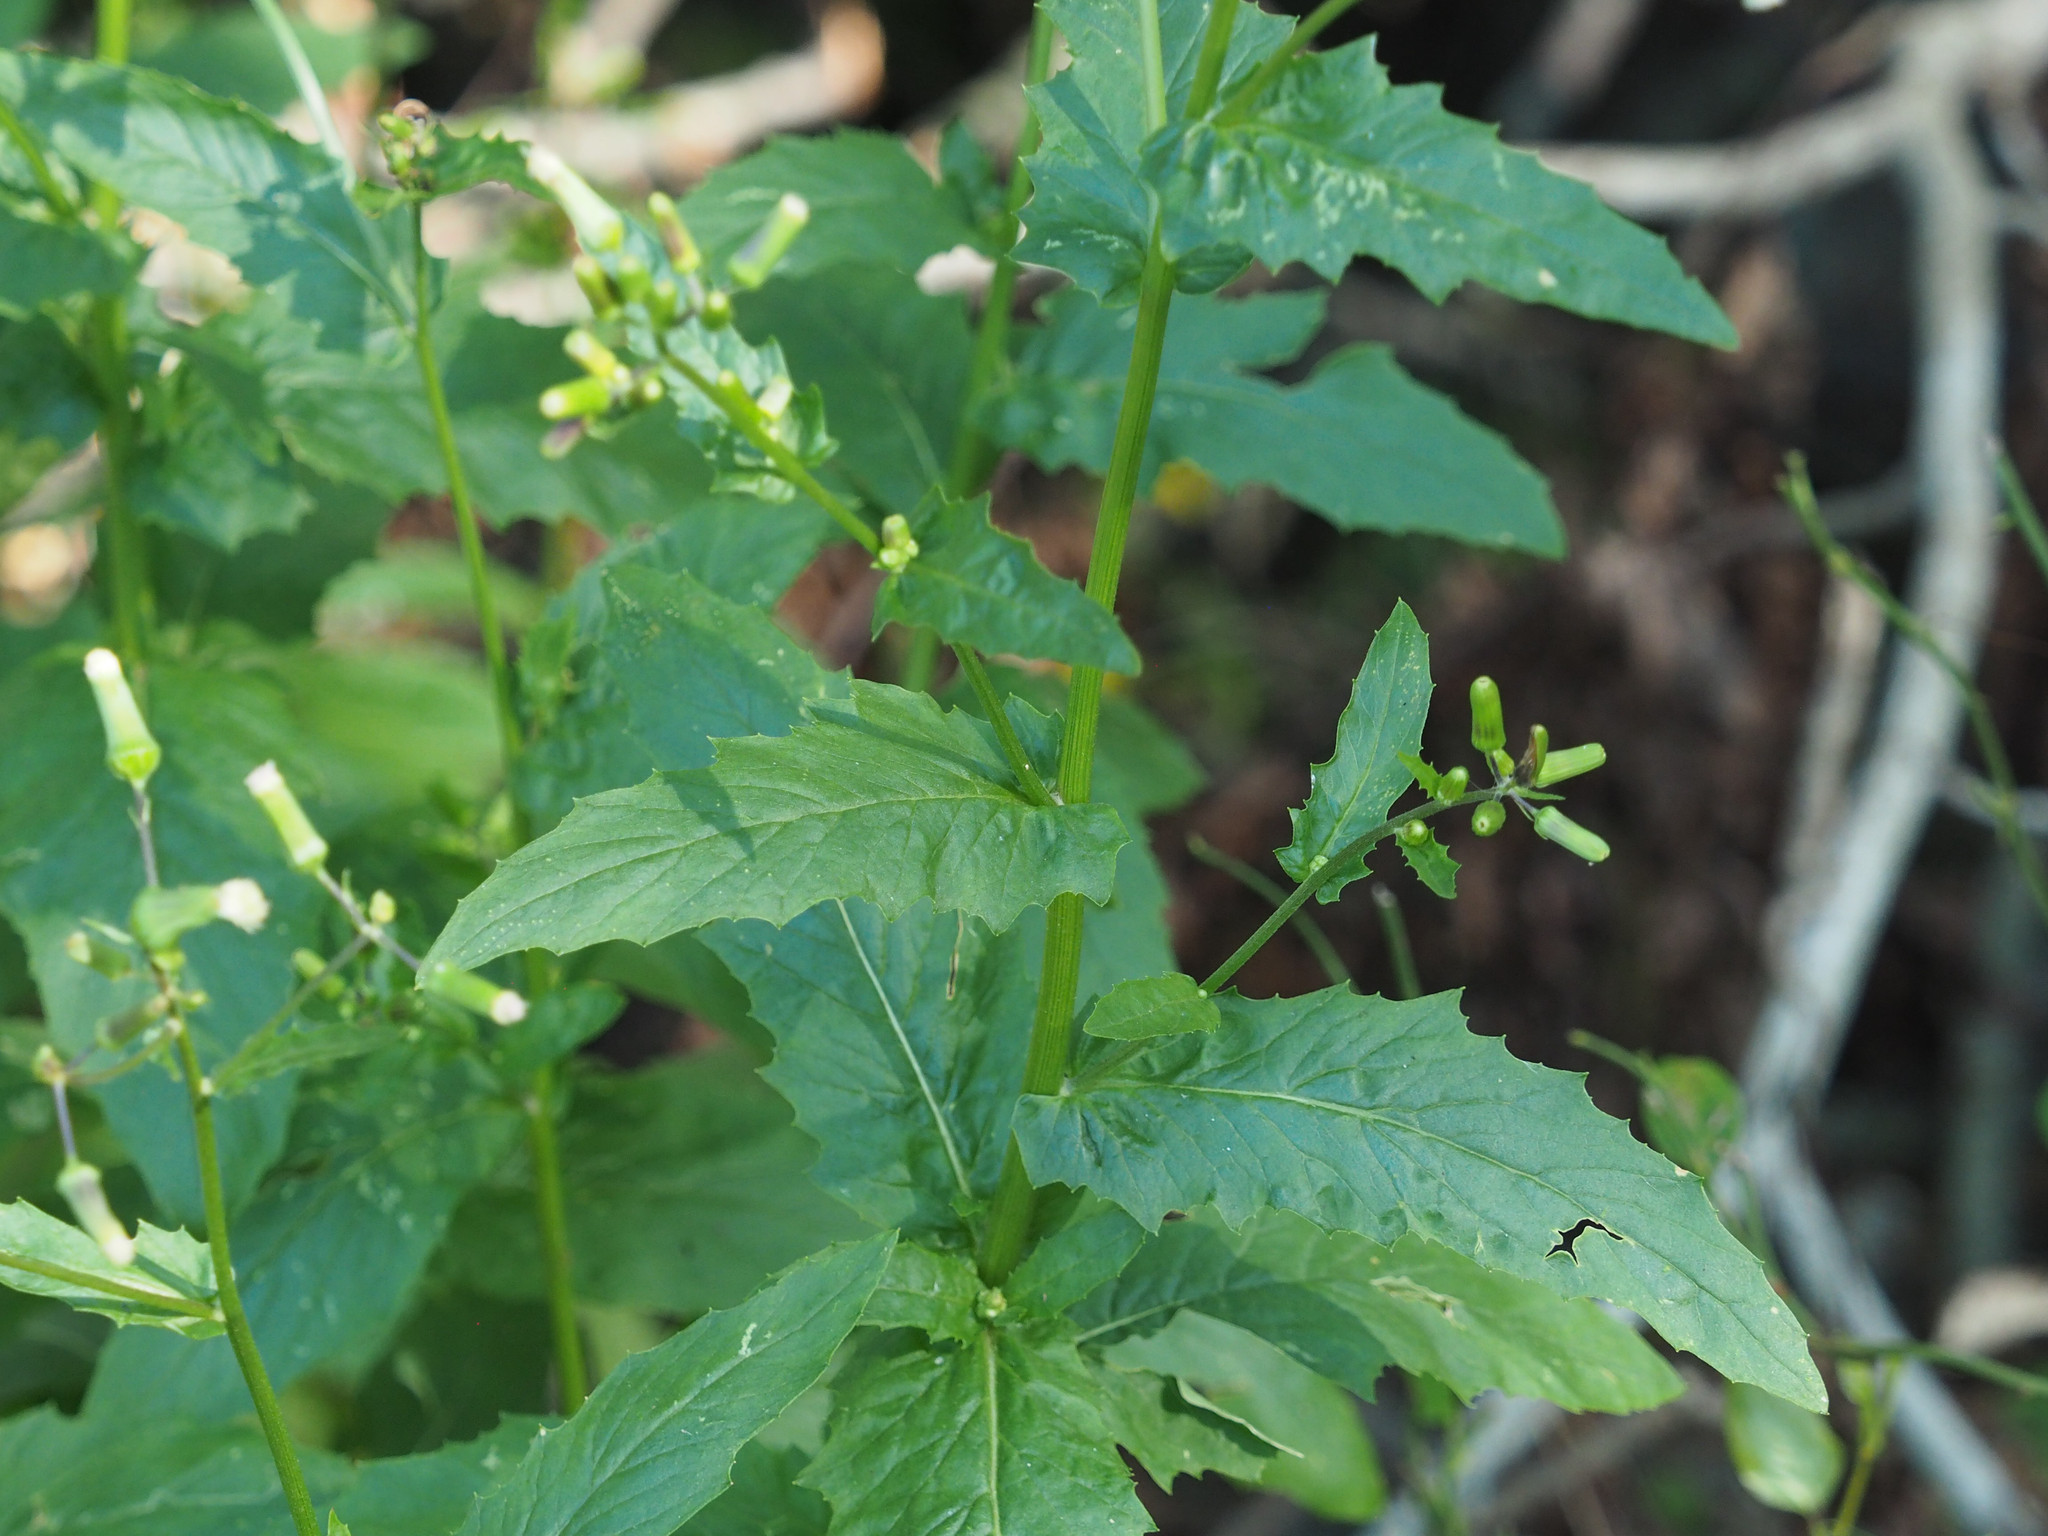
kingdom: Plantae
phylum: Tracheophyta
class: Magnoliopsida
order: Asterales
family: Asteraceae
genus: Erechtites
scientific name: Erechtites hieraciifolius
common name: American burnweed
